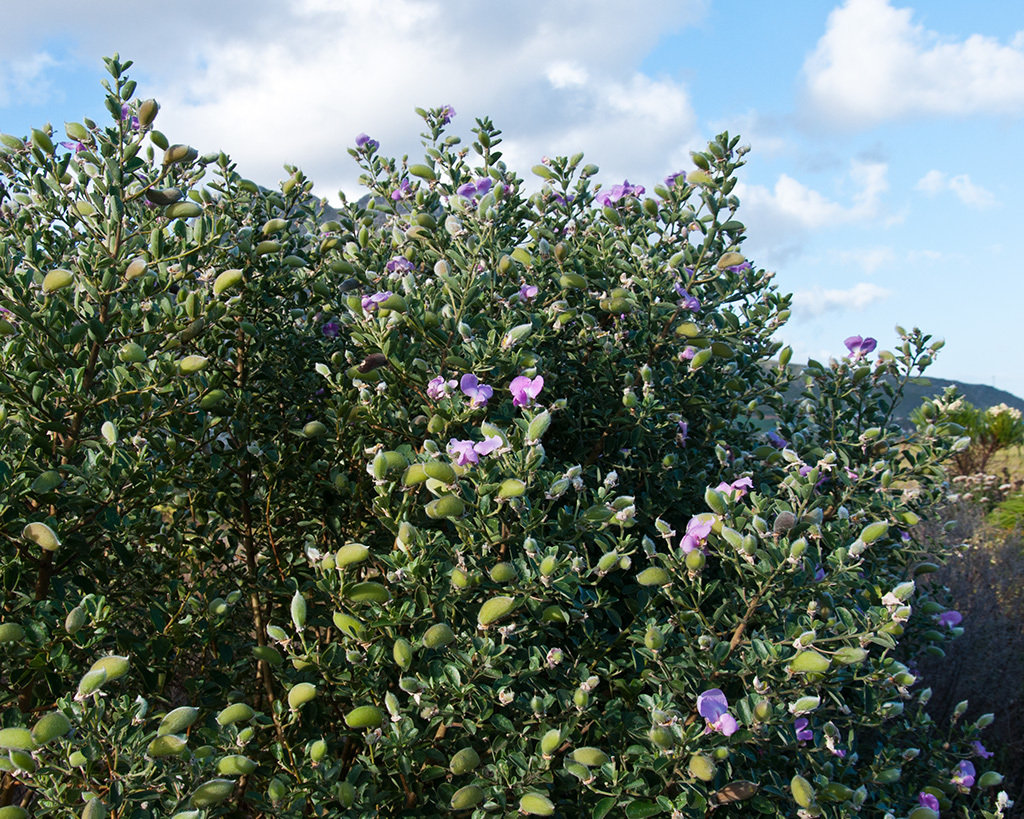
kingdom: Plantae
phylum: Tracheophyta
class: Magnoliopsida
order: Fabales
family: Fabaceae
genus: Podalyria
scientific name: Podalyria calyptrata
